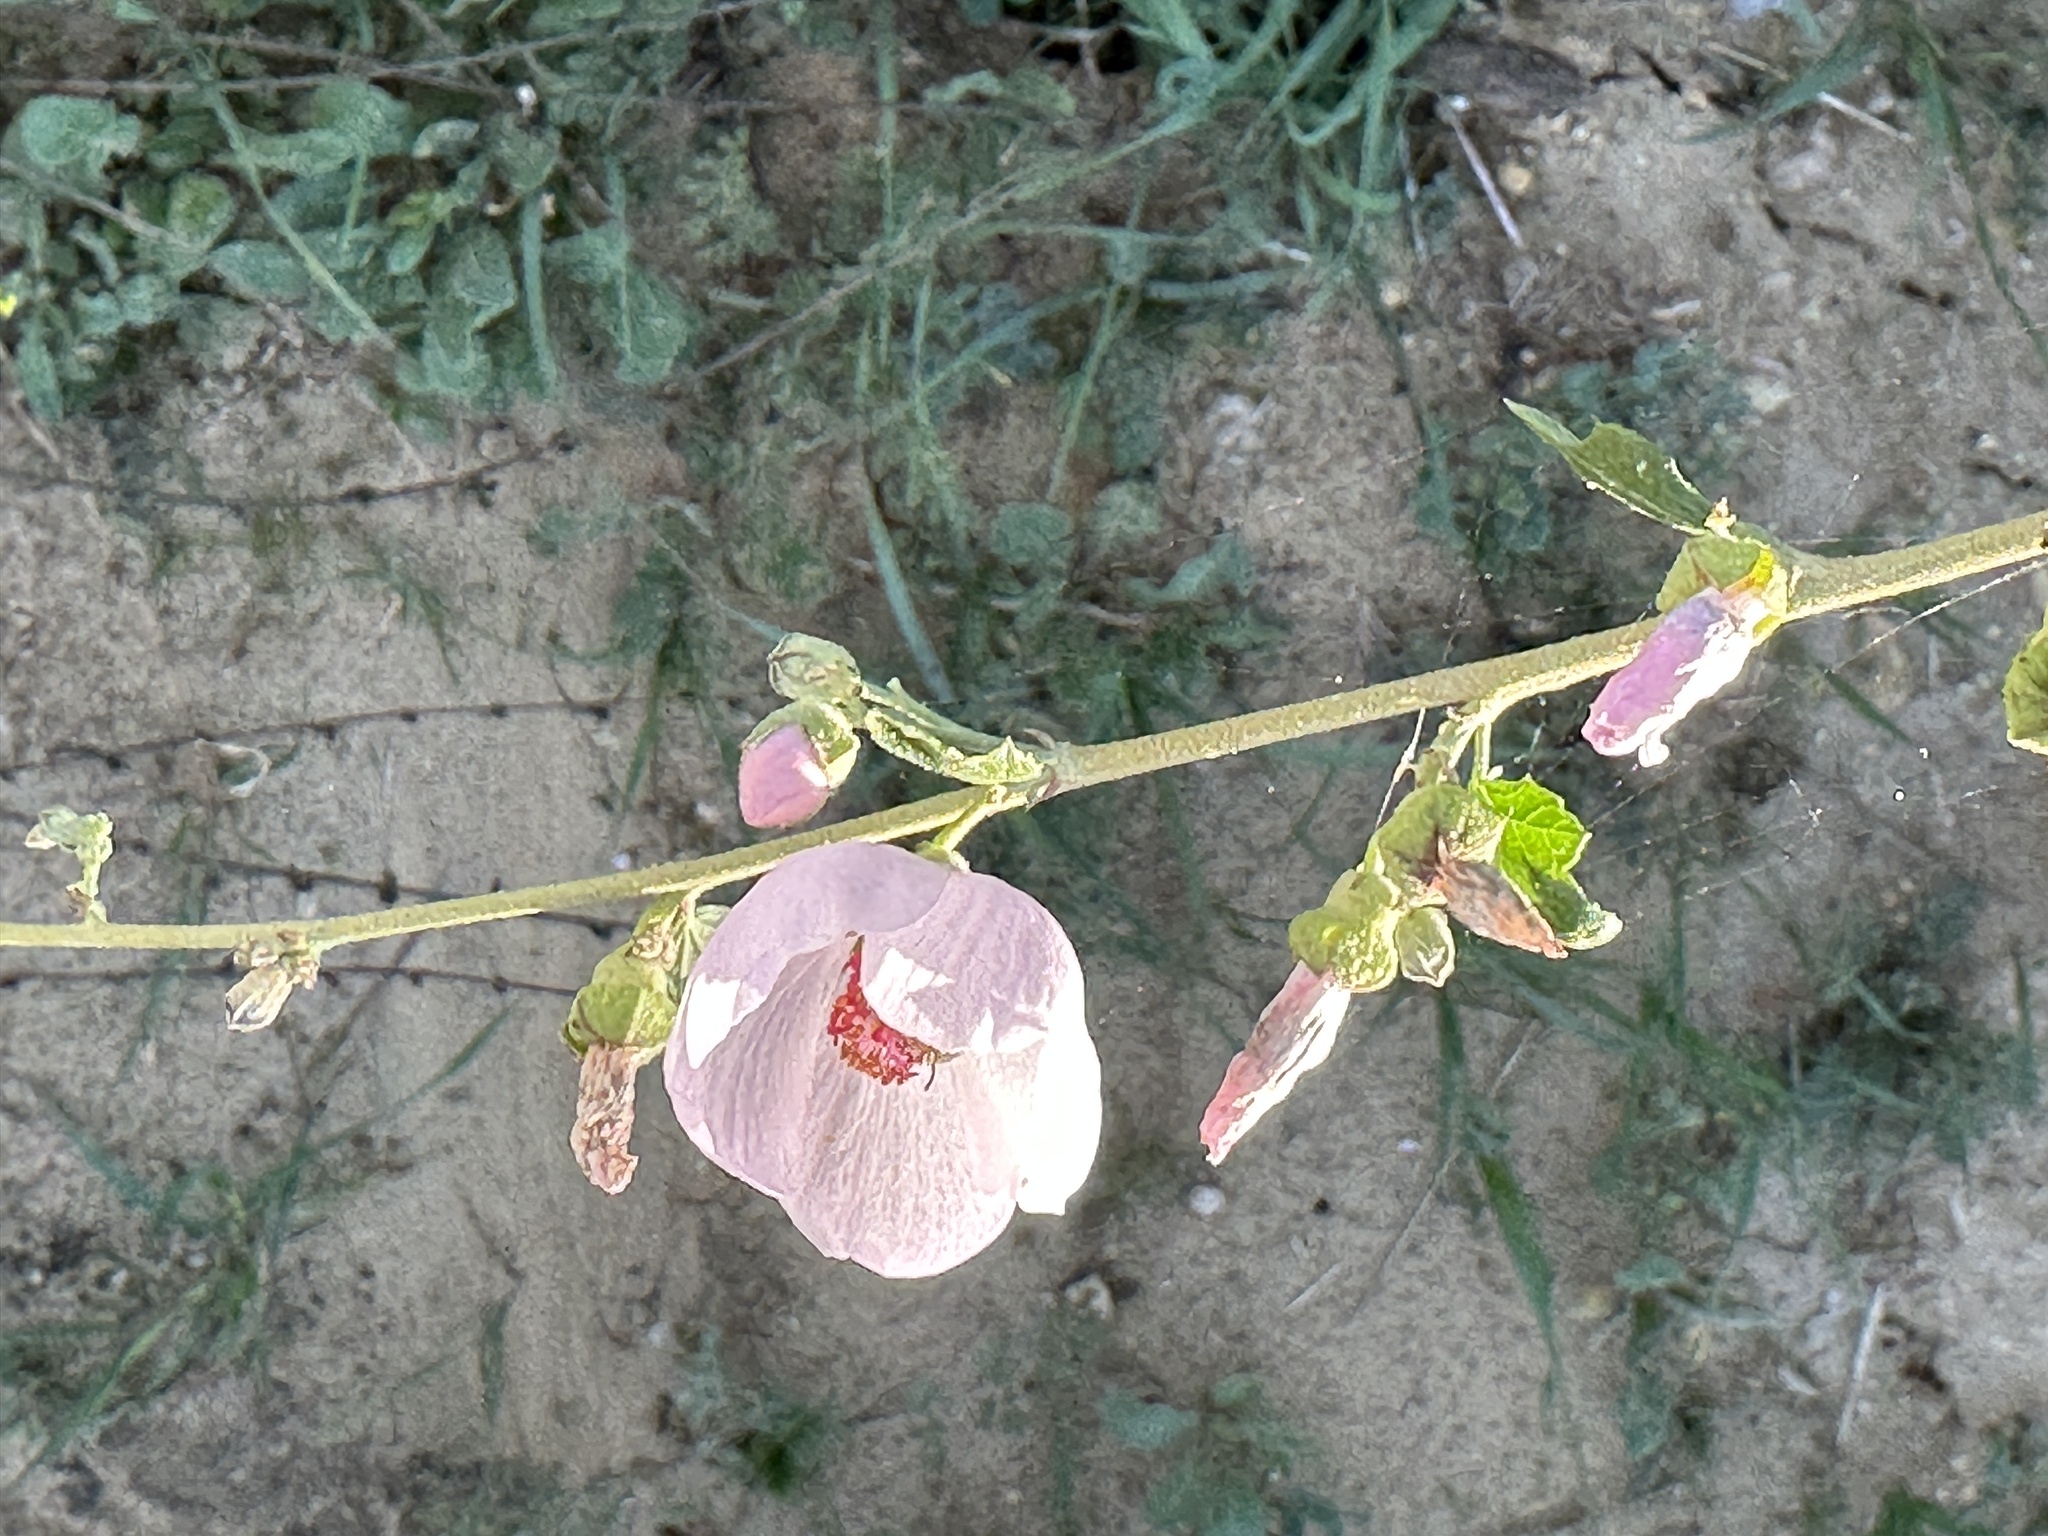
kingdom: Plantae
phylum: Tracheophyta
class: Magnoliopsida
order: Malvales
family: Malvaceae
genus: Malacothamnus
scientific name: Malacothamnus fasciculatus
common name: Sant cruz island bush-mallow
